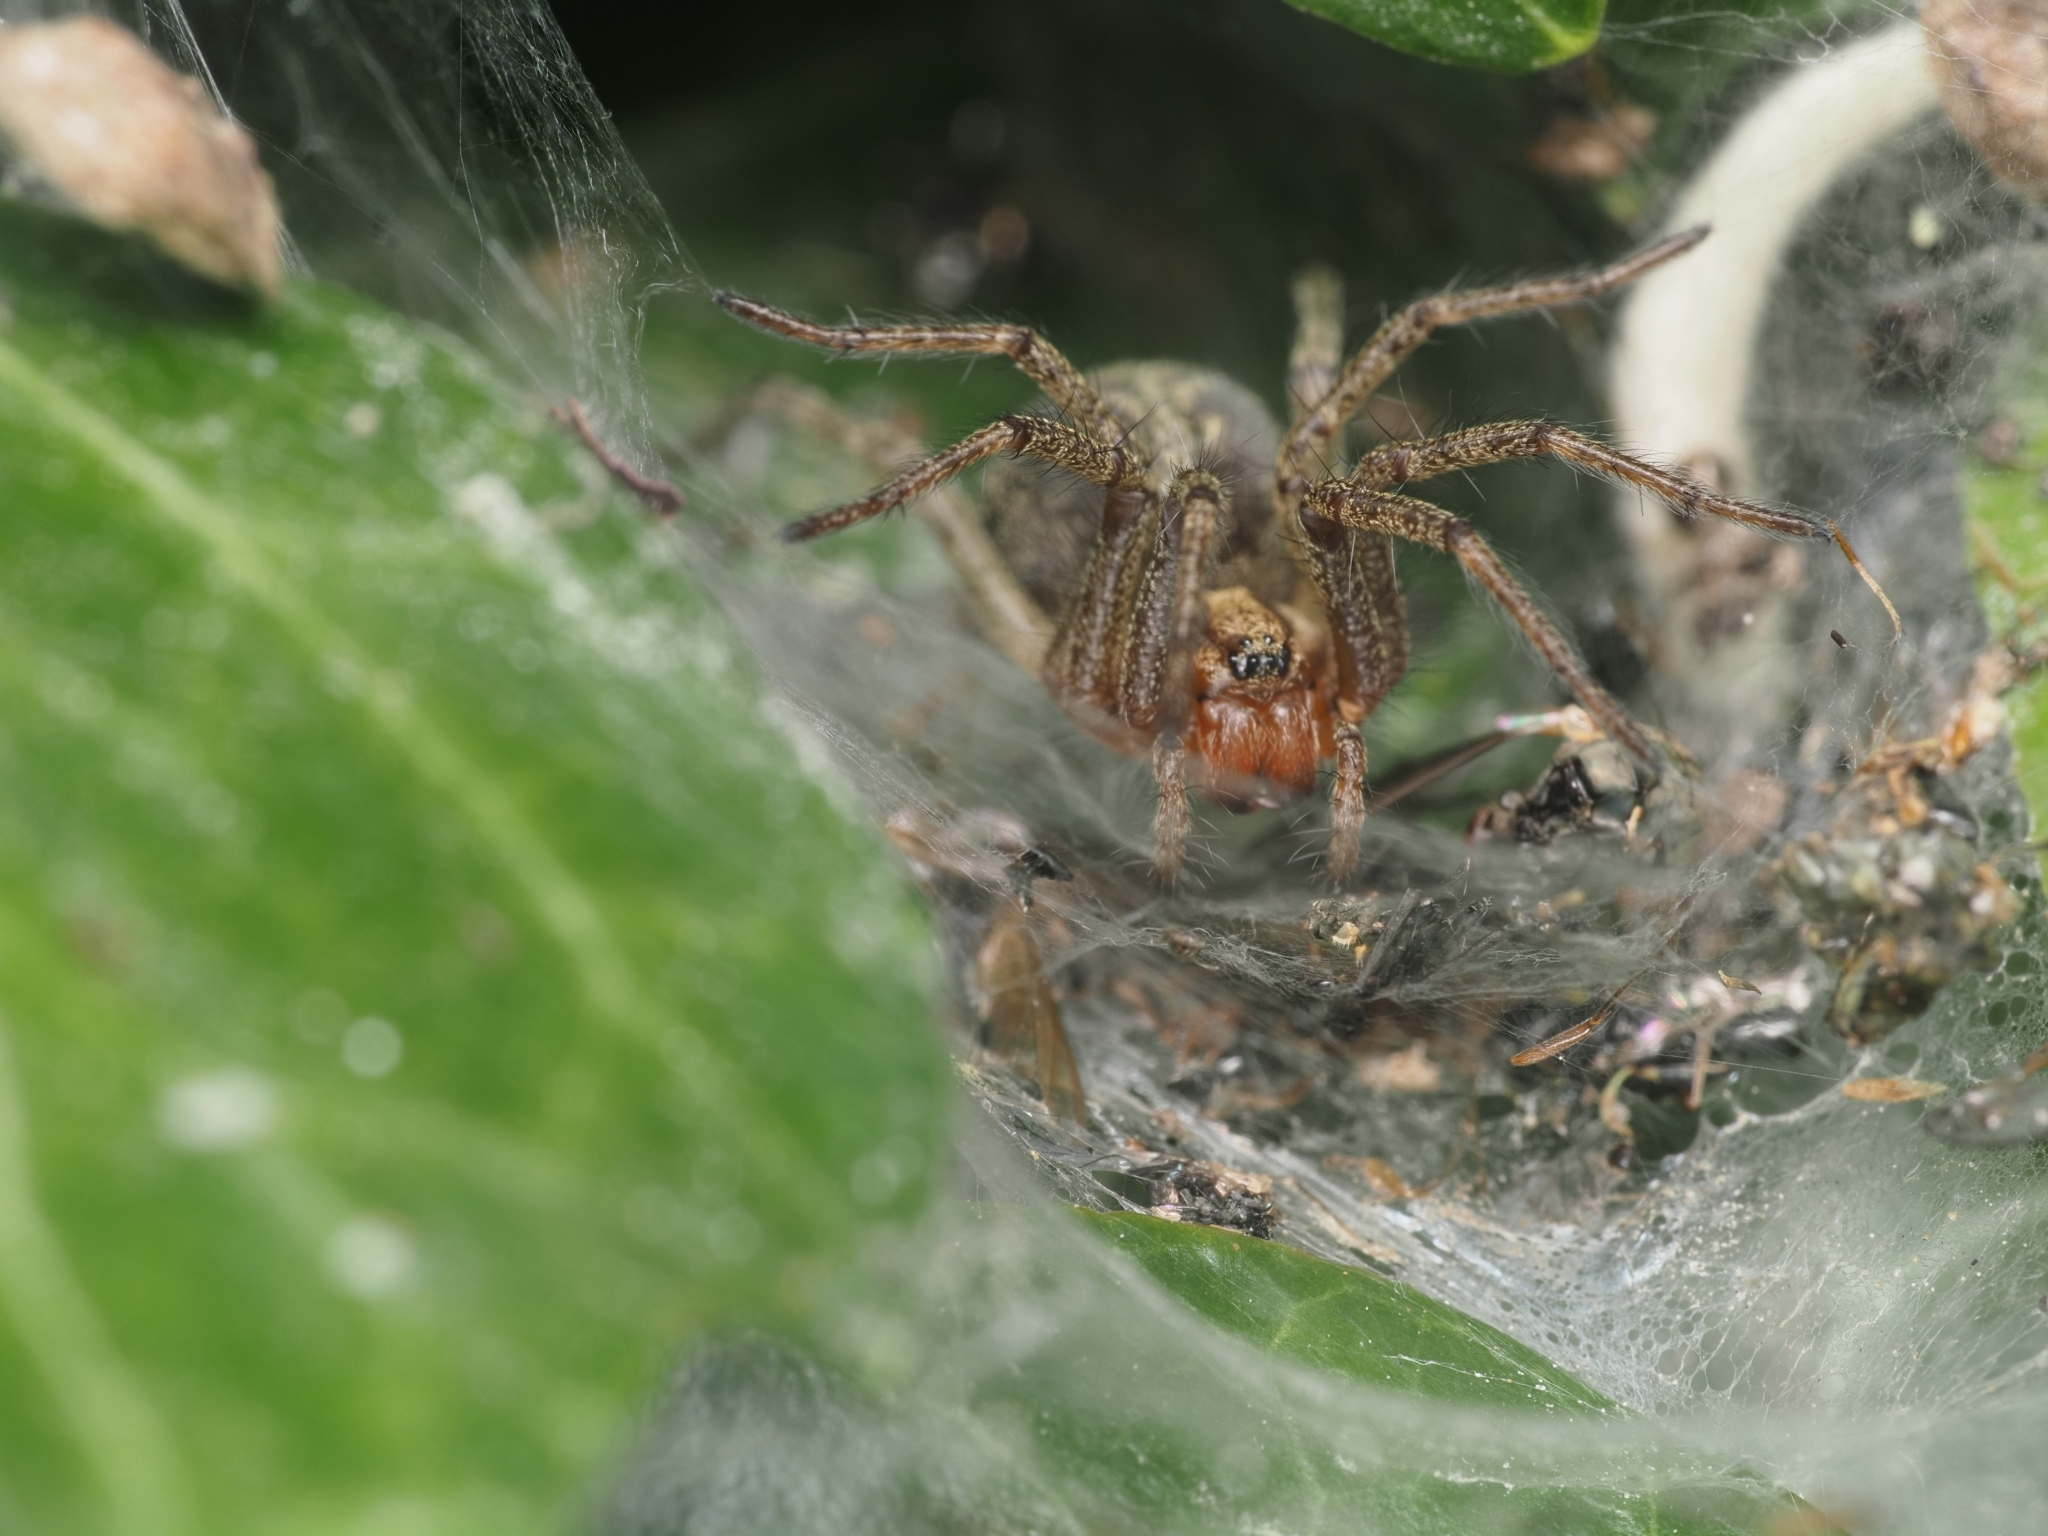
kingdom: Animalia
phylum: Arthropoda
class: Arachnida
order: Araneae
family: Agelenidae
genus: Agelena
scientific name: Agelena labyrinthica
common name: Labyrinth spider
